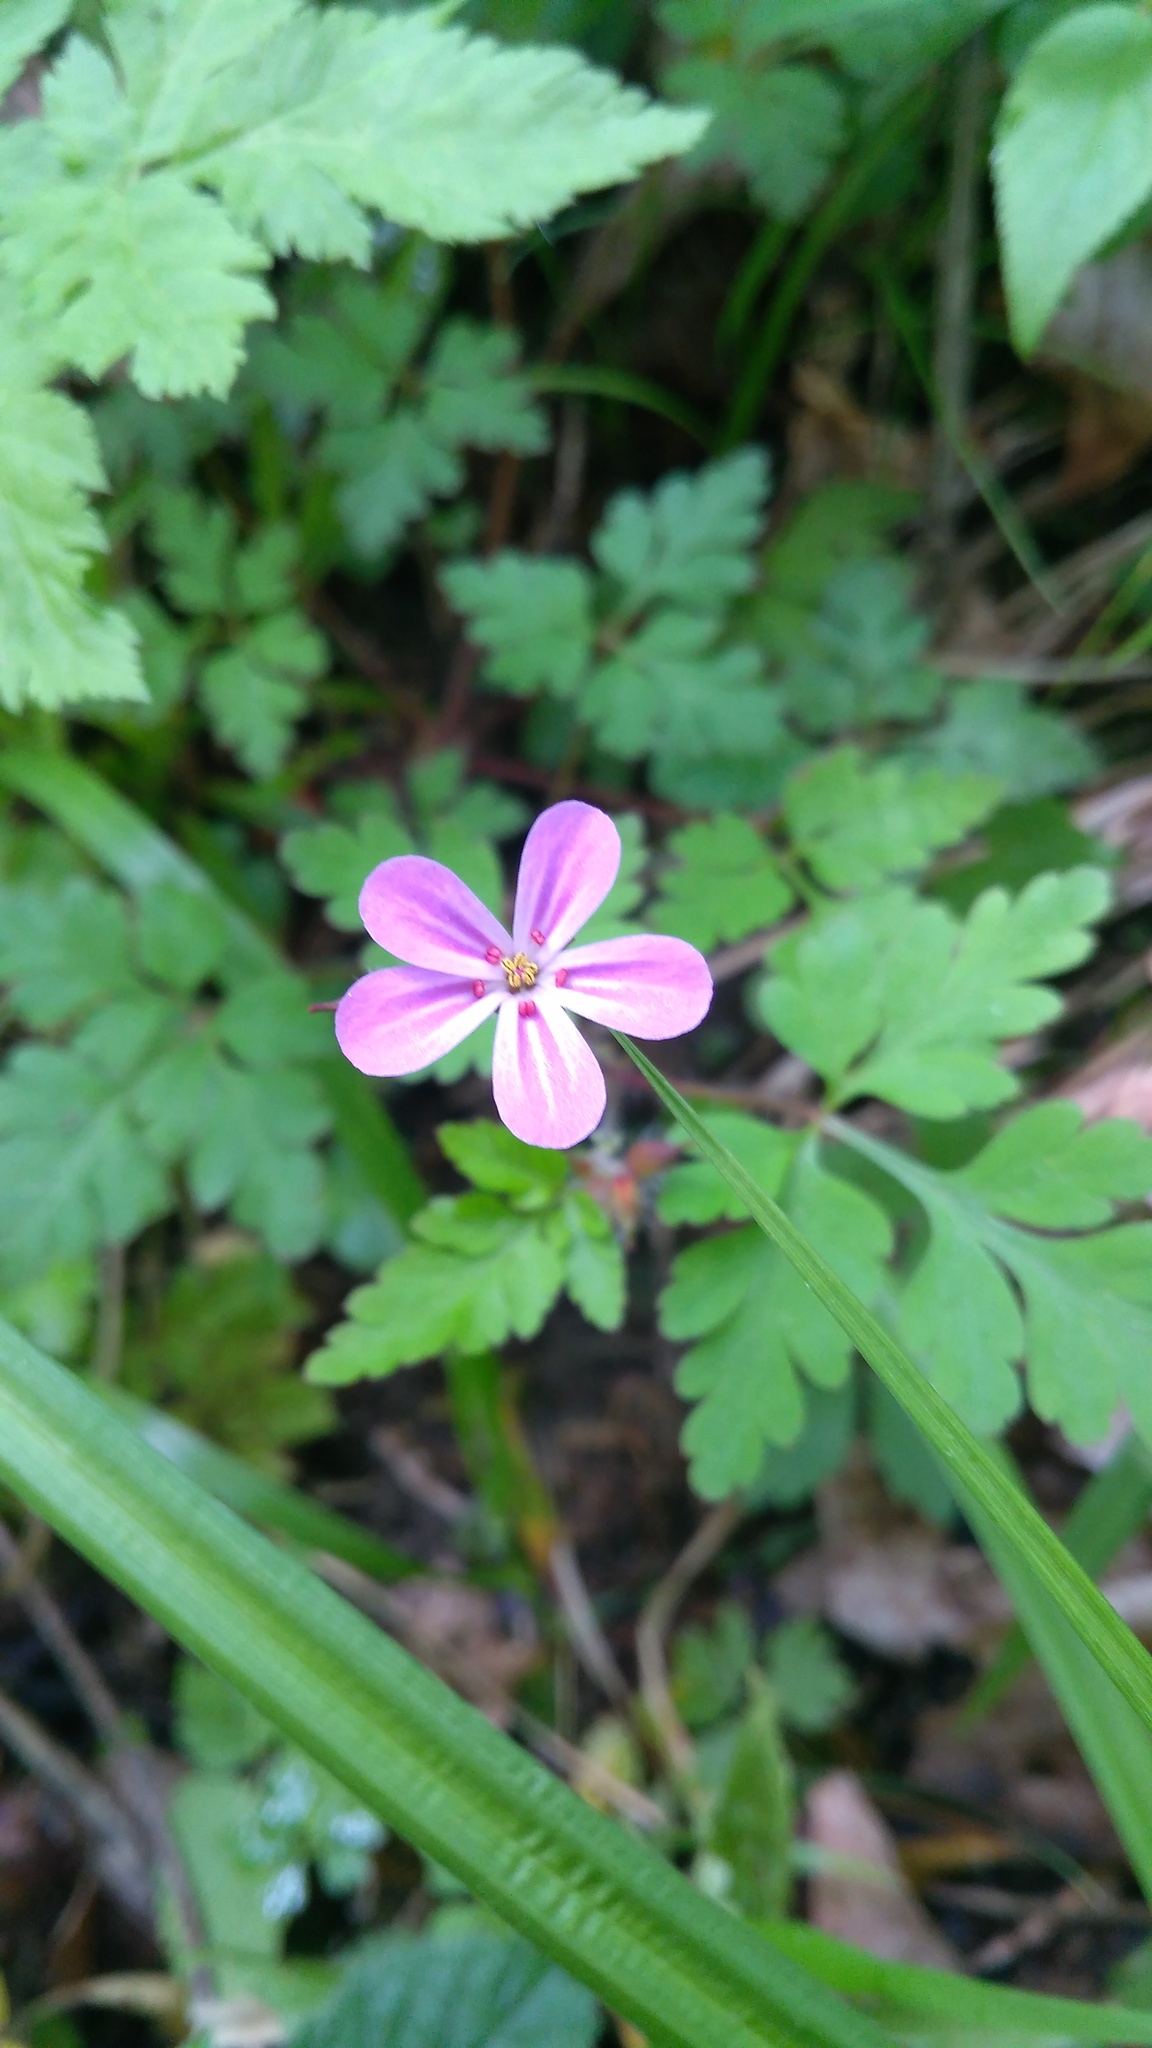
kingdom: Plantae
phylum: Tracheophyta
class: Magnoliopsida
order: Geraniales
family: Geraniaceae
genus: Geranium
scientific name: Geranium robertianum
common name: Herb-robert
